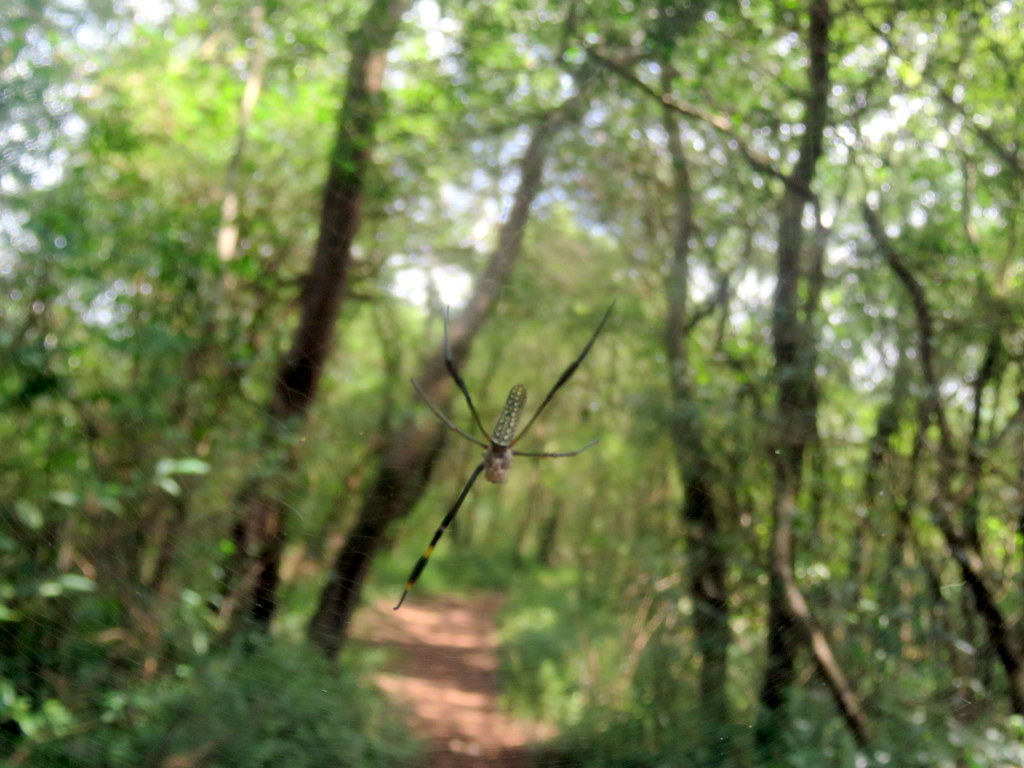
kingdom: Animalia
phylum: Arthropoda
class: Arachnida
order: Araneae
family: Araneidae
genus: Trichonephila
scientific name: Trichonephila clavipes
